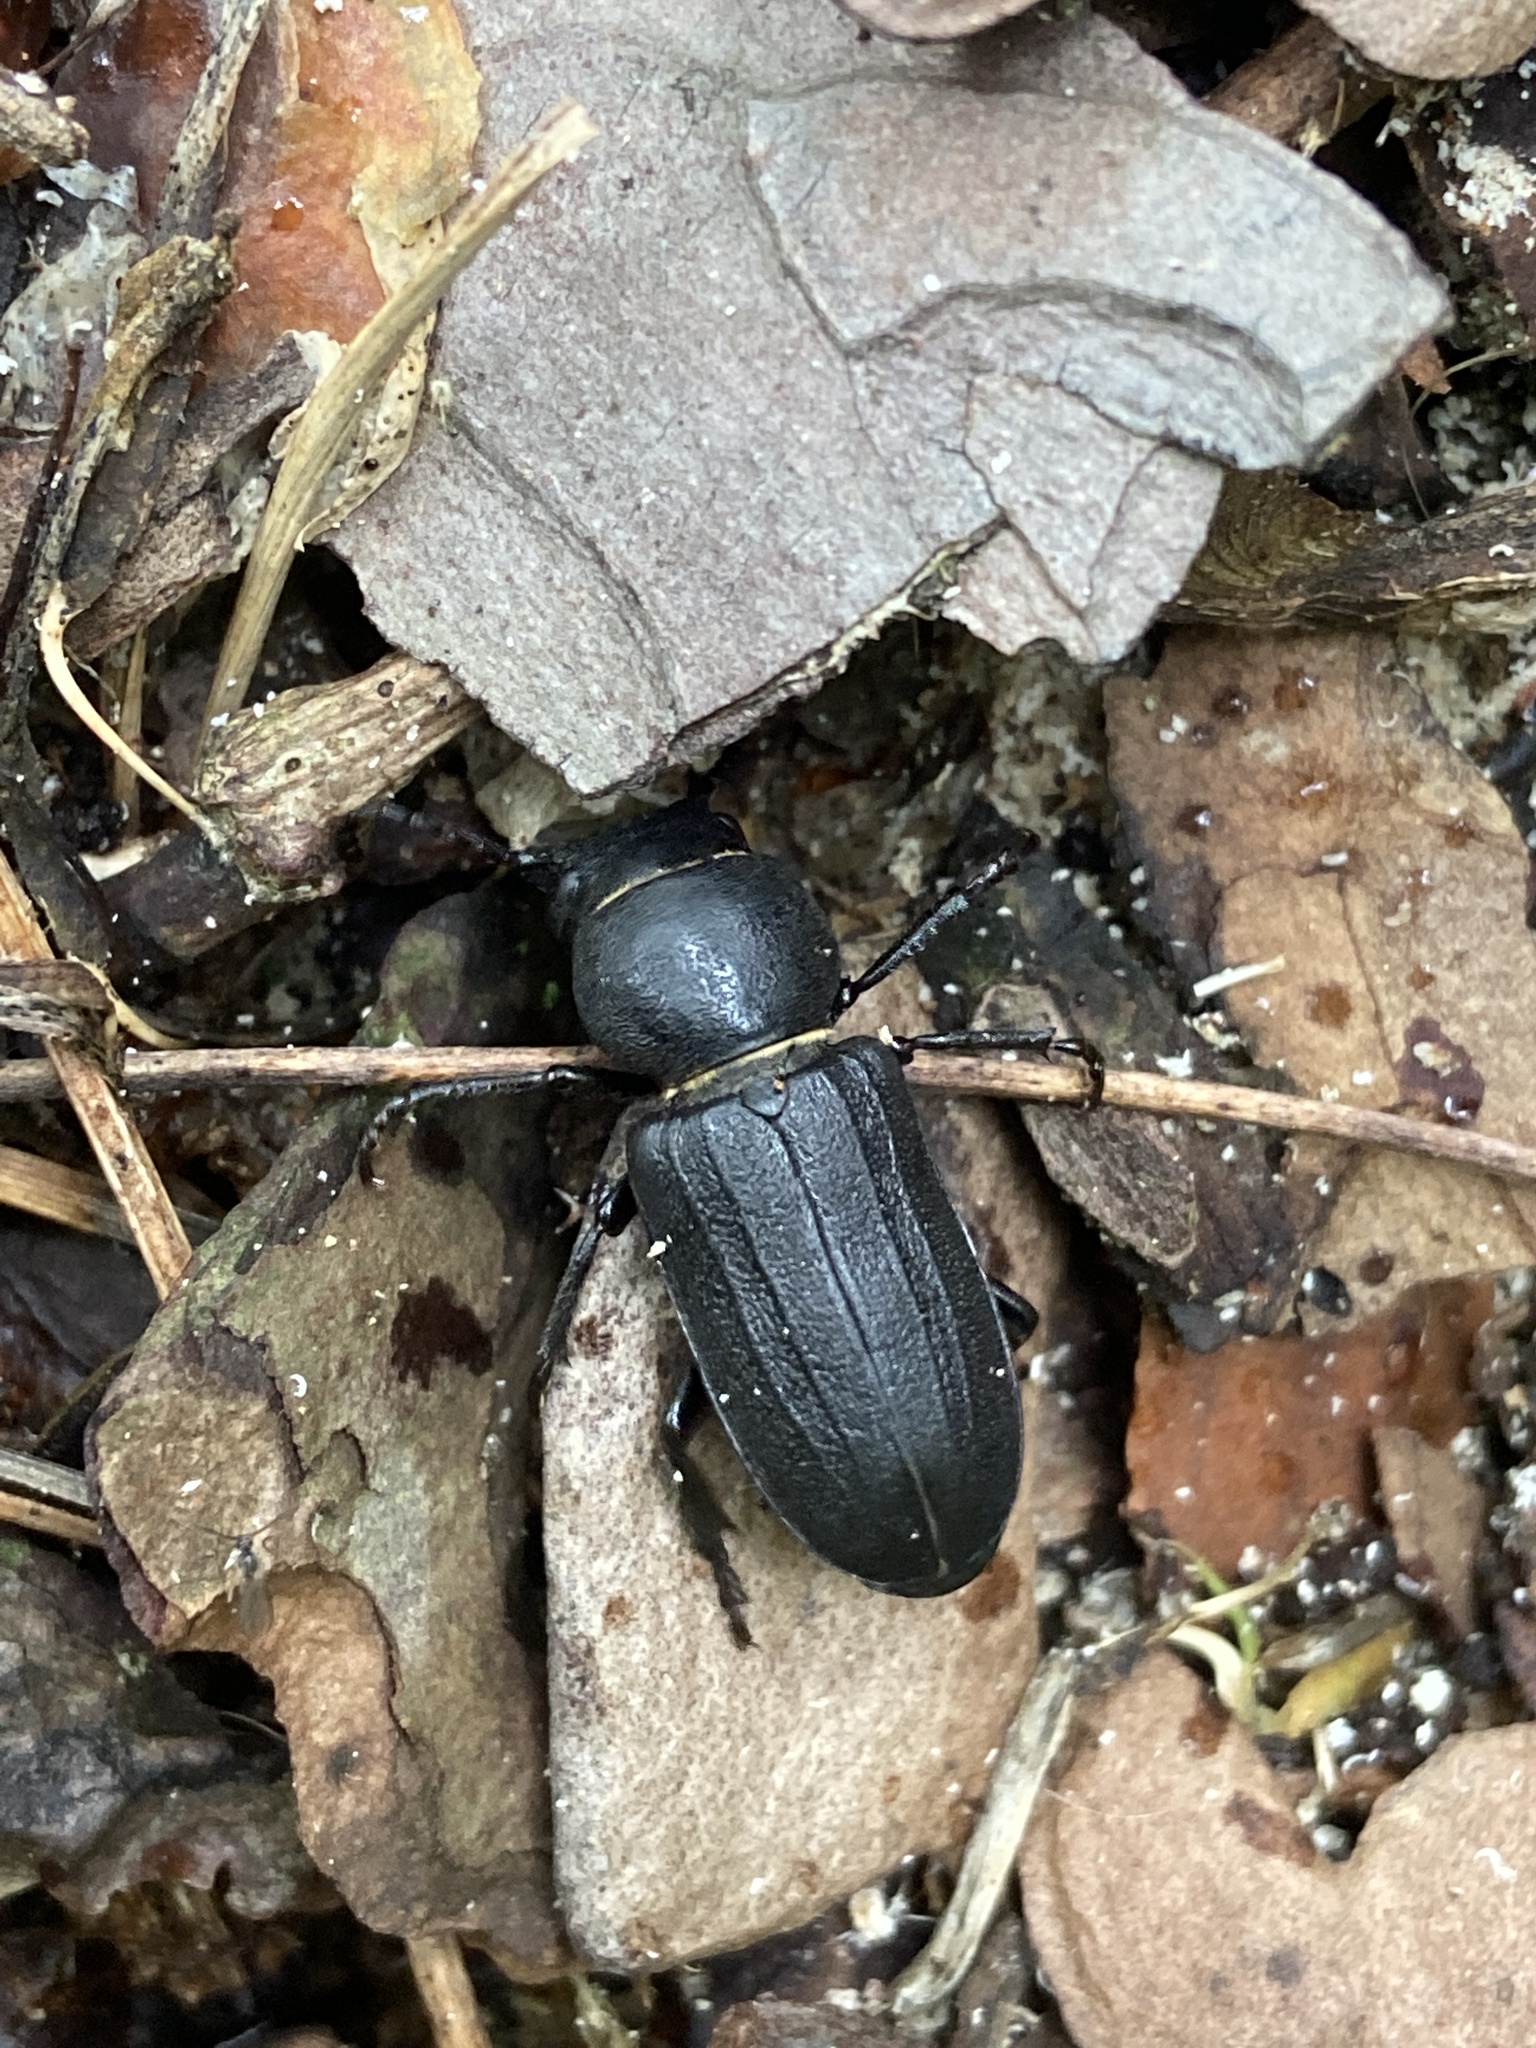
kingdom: Animalia
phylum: Arthropoda
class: Insecta
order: Coleoptera
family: Cerambycidae
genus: Spondylis
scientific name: Spondylis buprestoides
